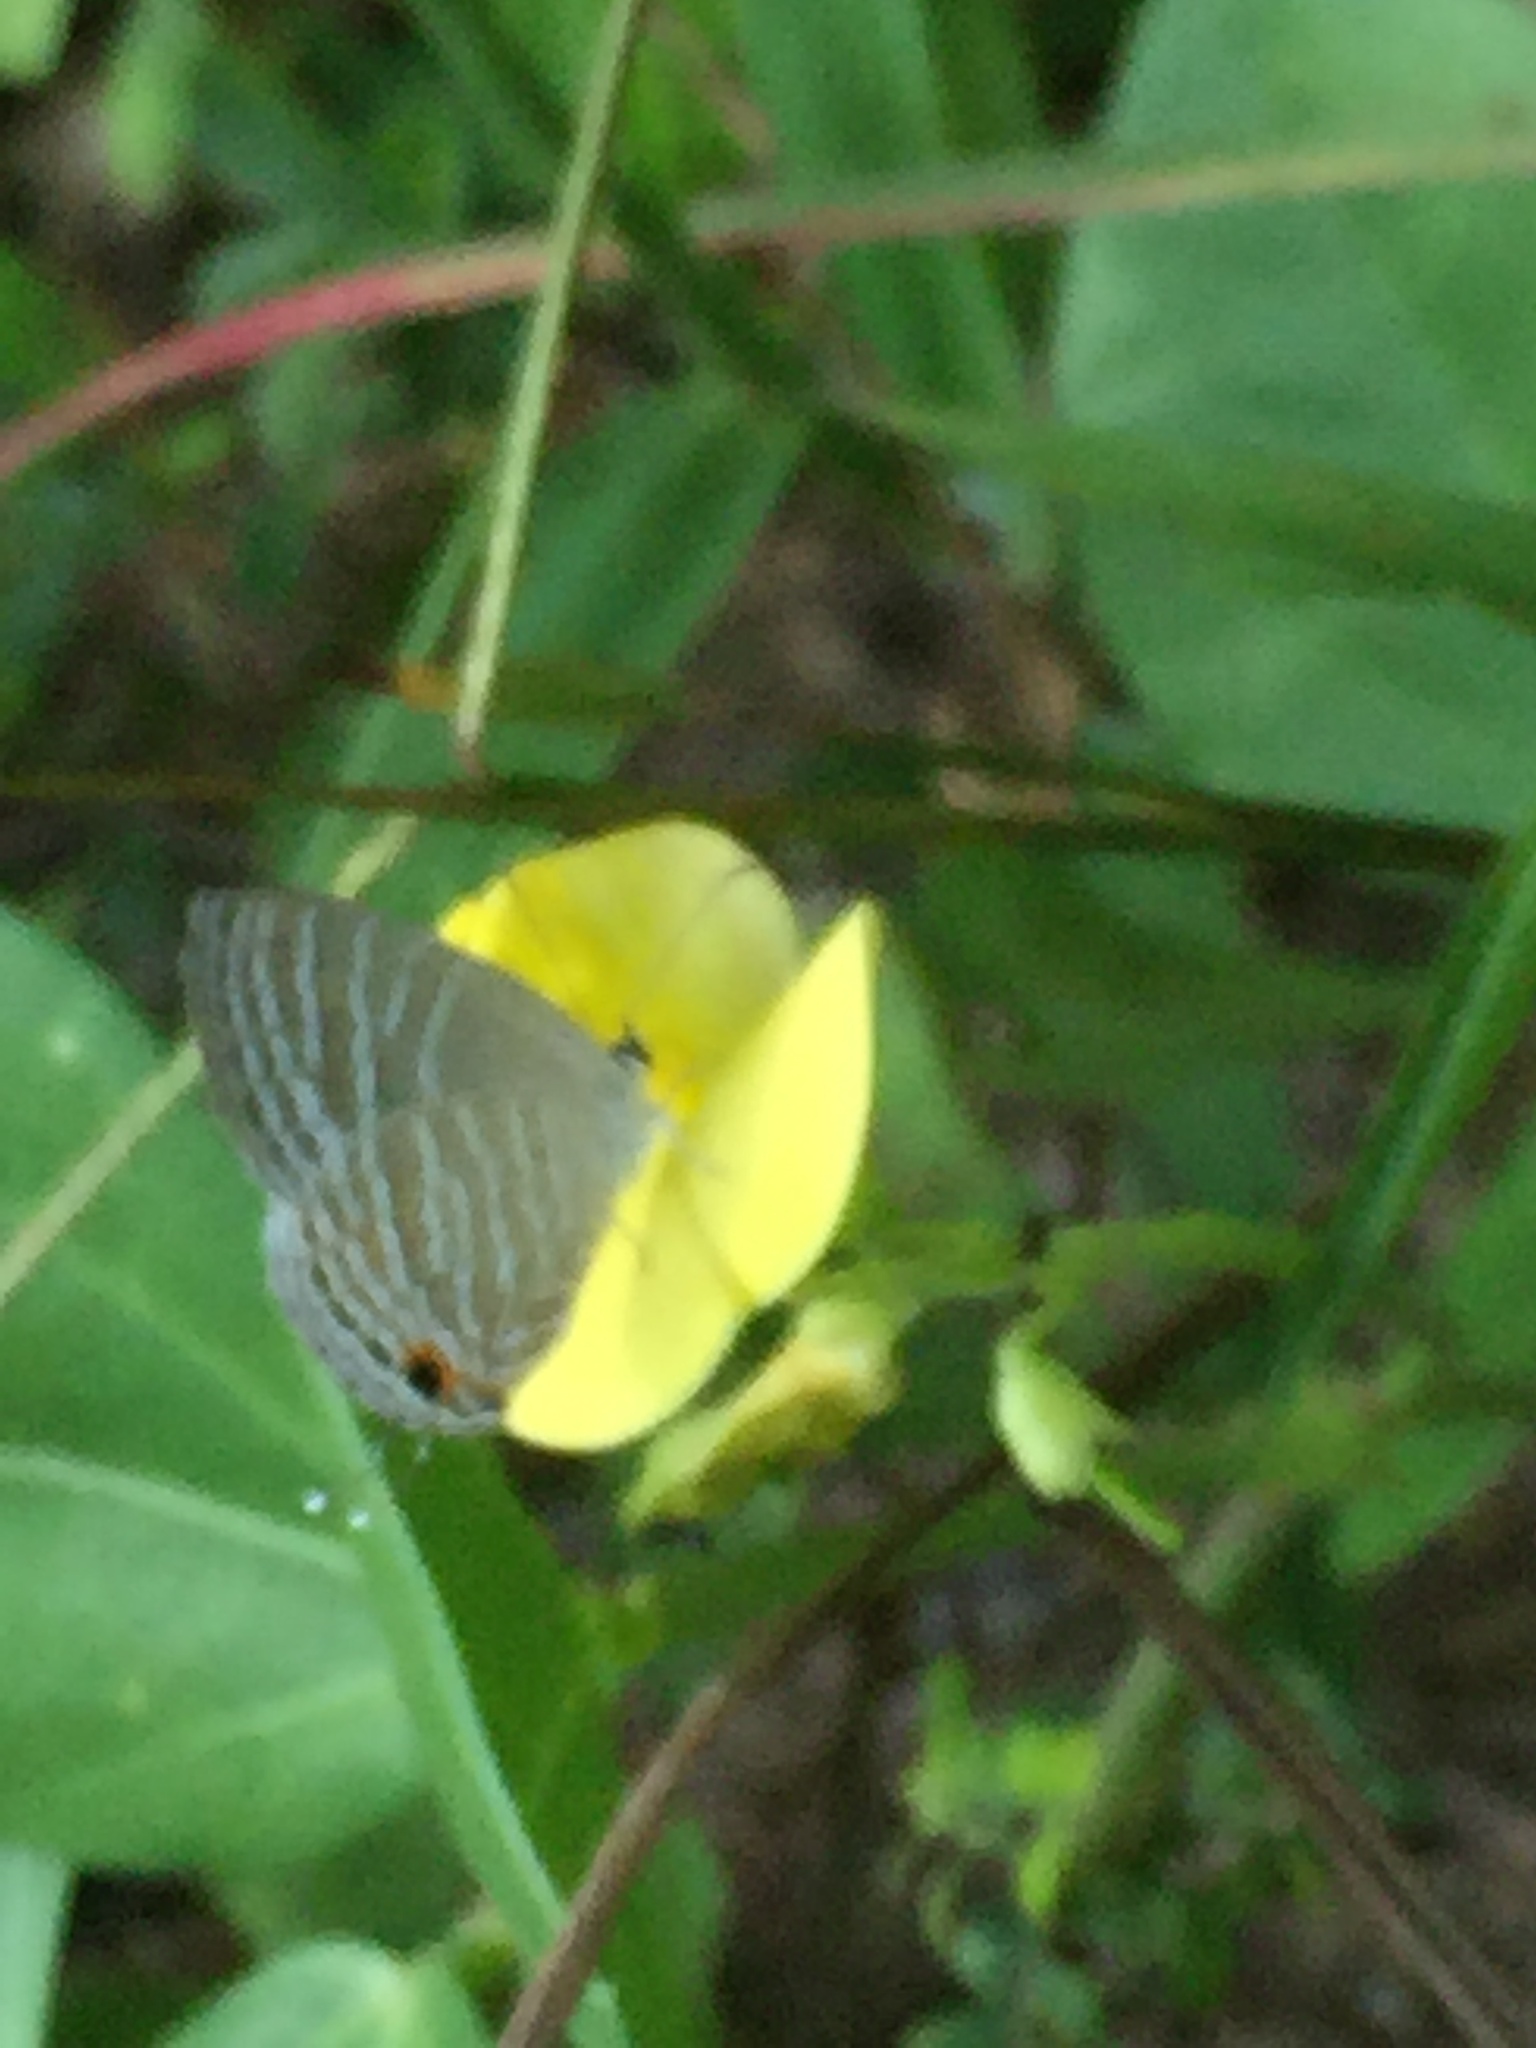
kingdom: Animalia
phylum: Arthropoda
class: Insecta
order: Lepidoptera
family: Lycaenidae
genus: Jamides
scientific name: Jamides celeno
